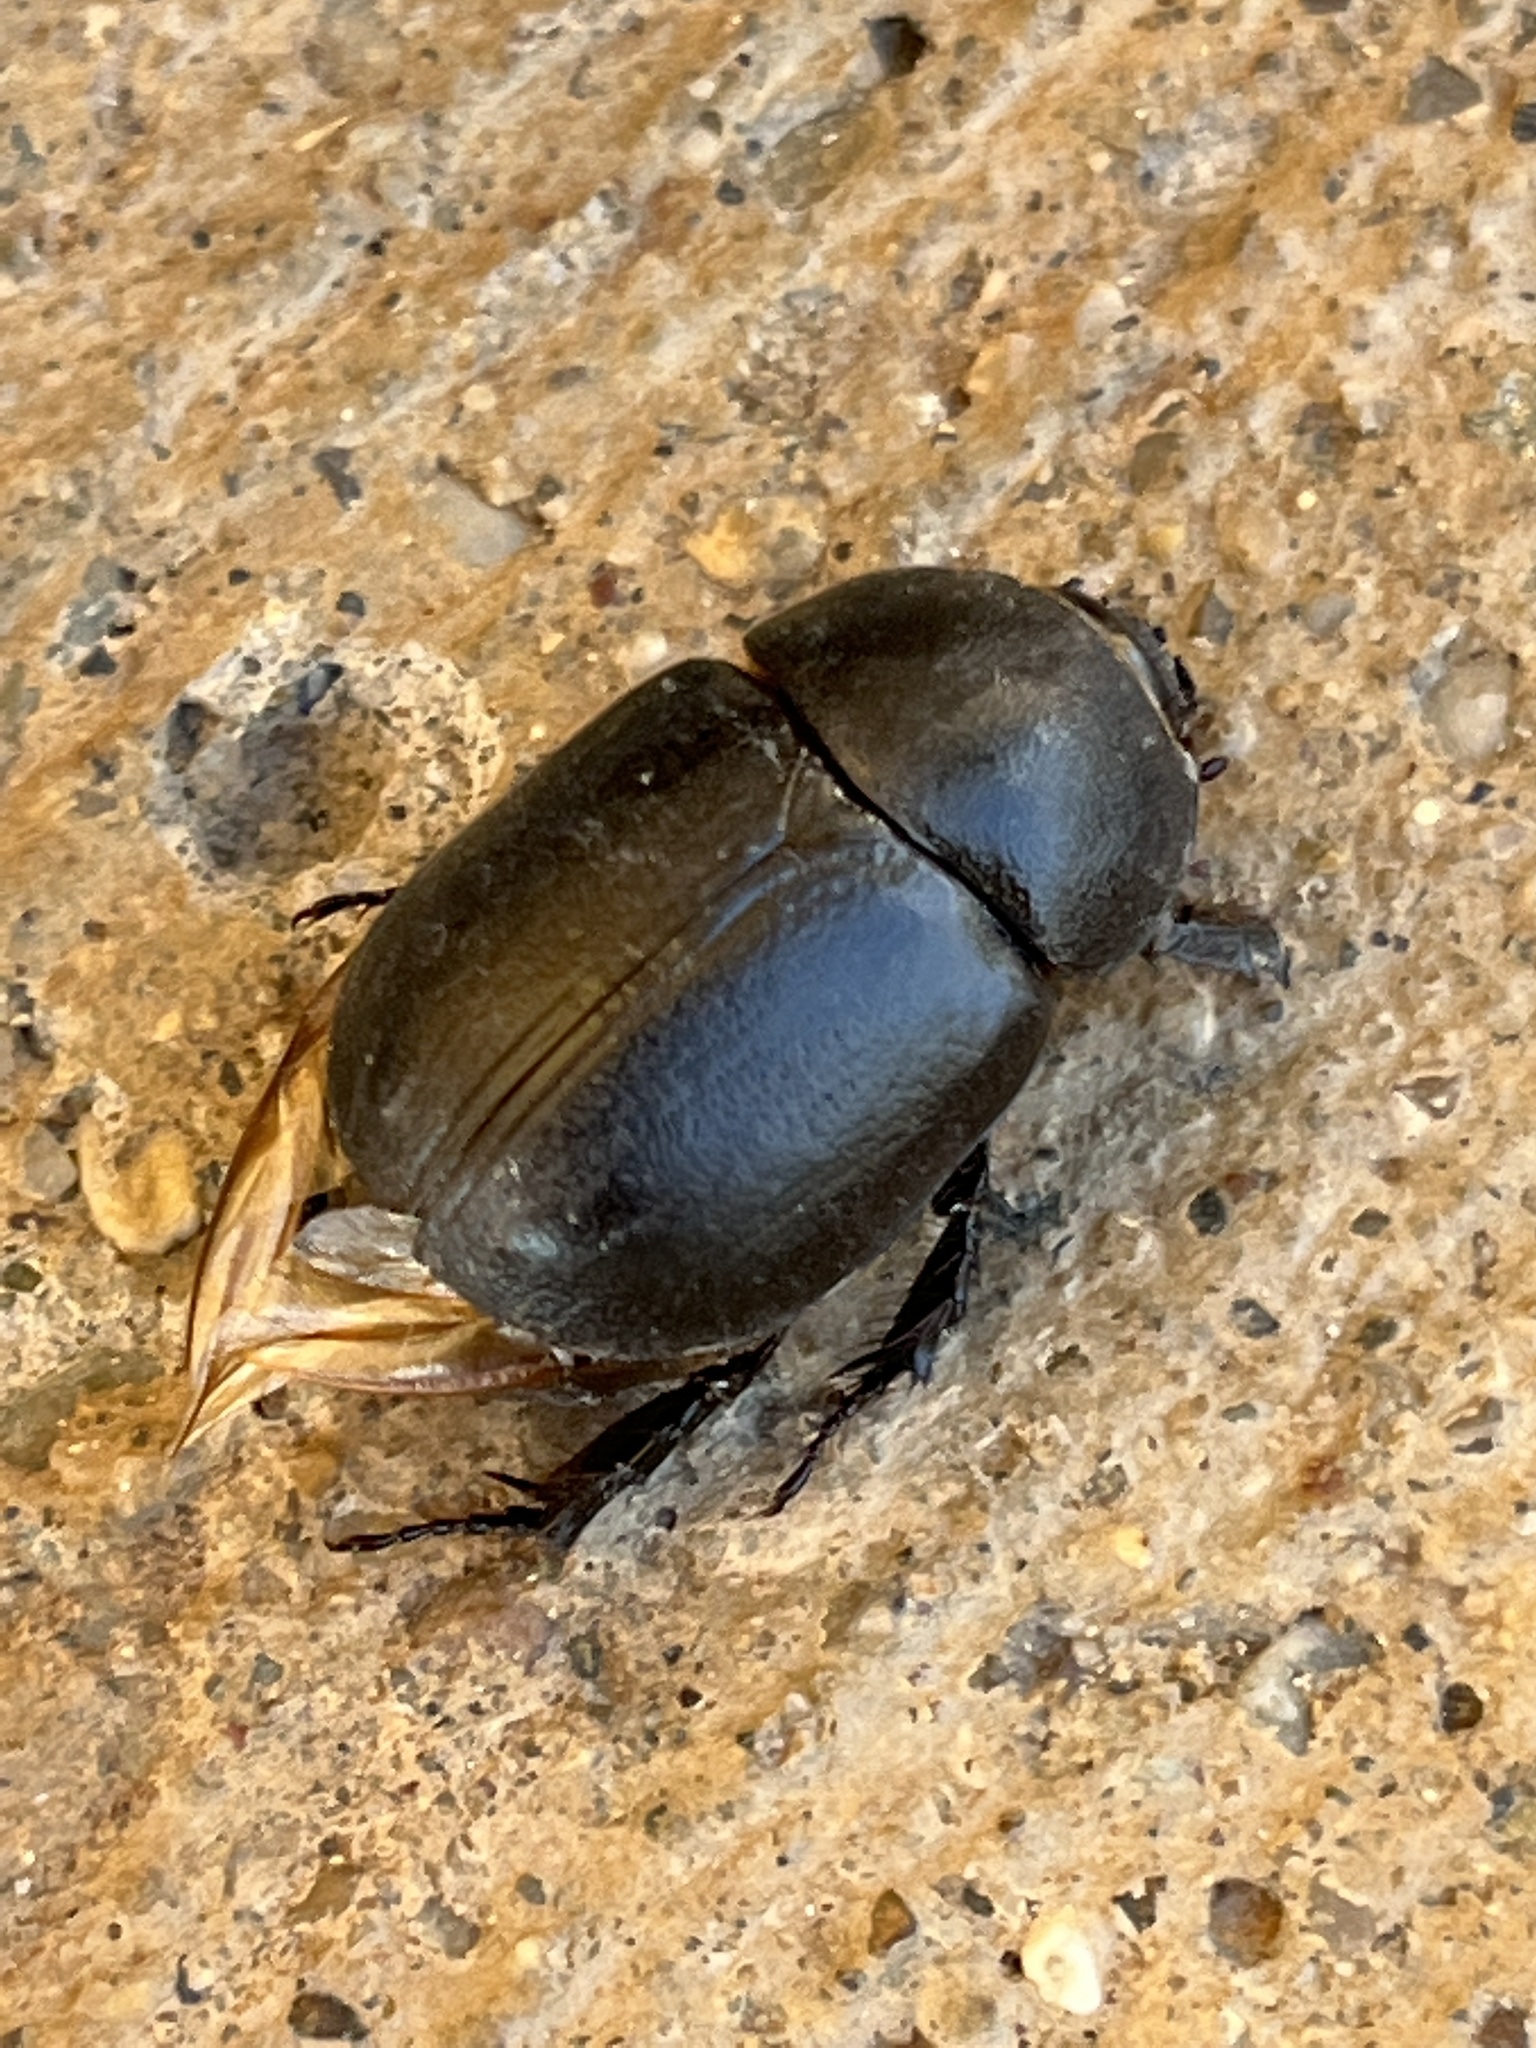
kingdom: Animalia
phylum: Arthropoda
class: Insecta
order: Coleoptera
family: Scarabaeidae
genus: Pentodon
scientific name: Pentodon idiota
